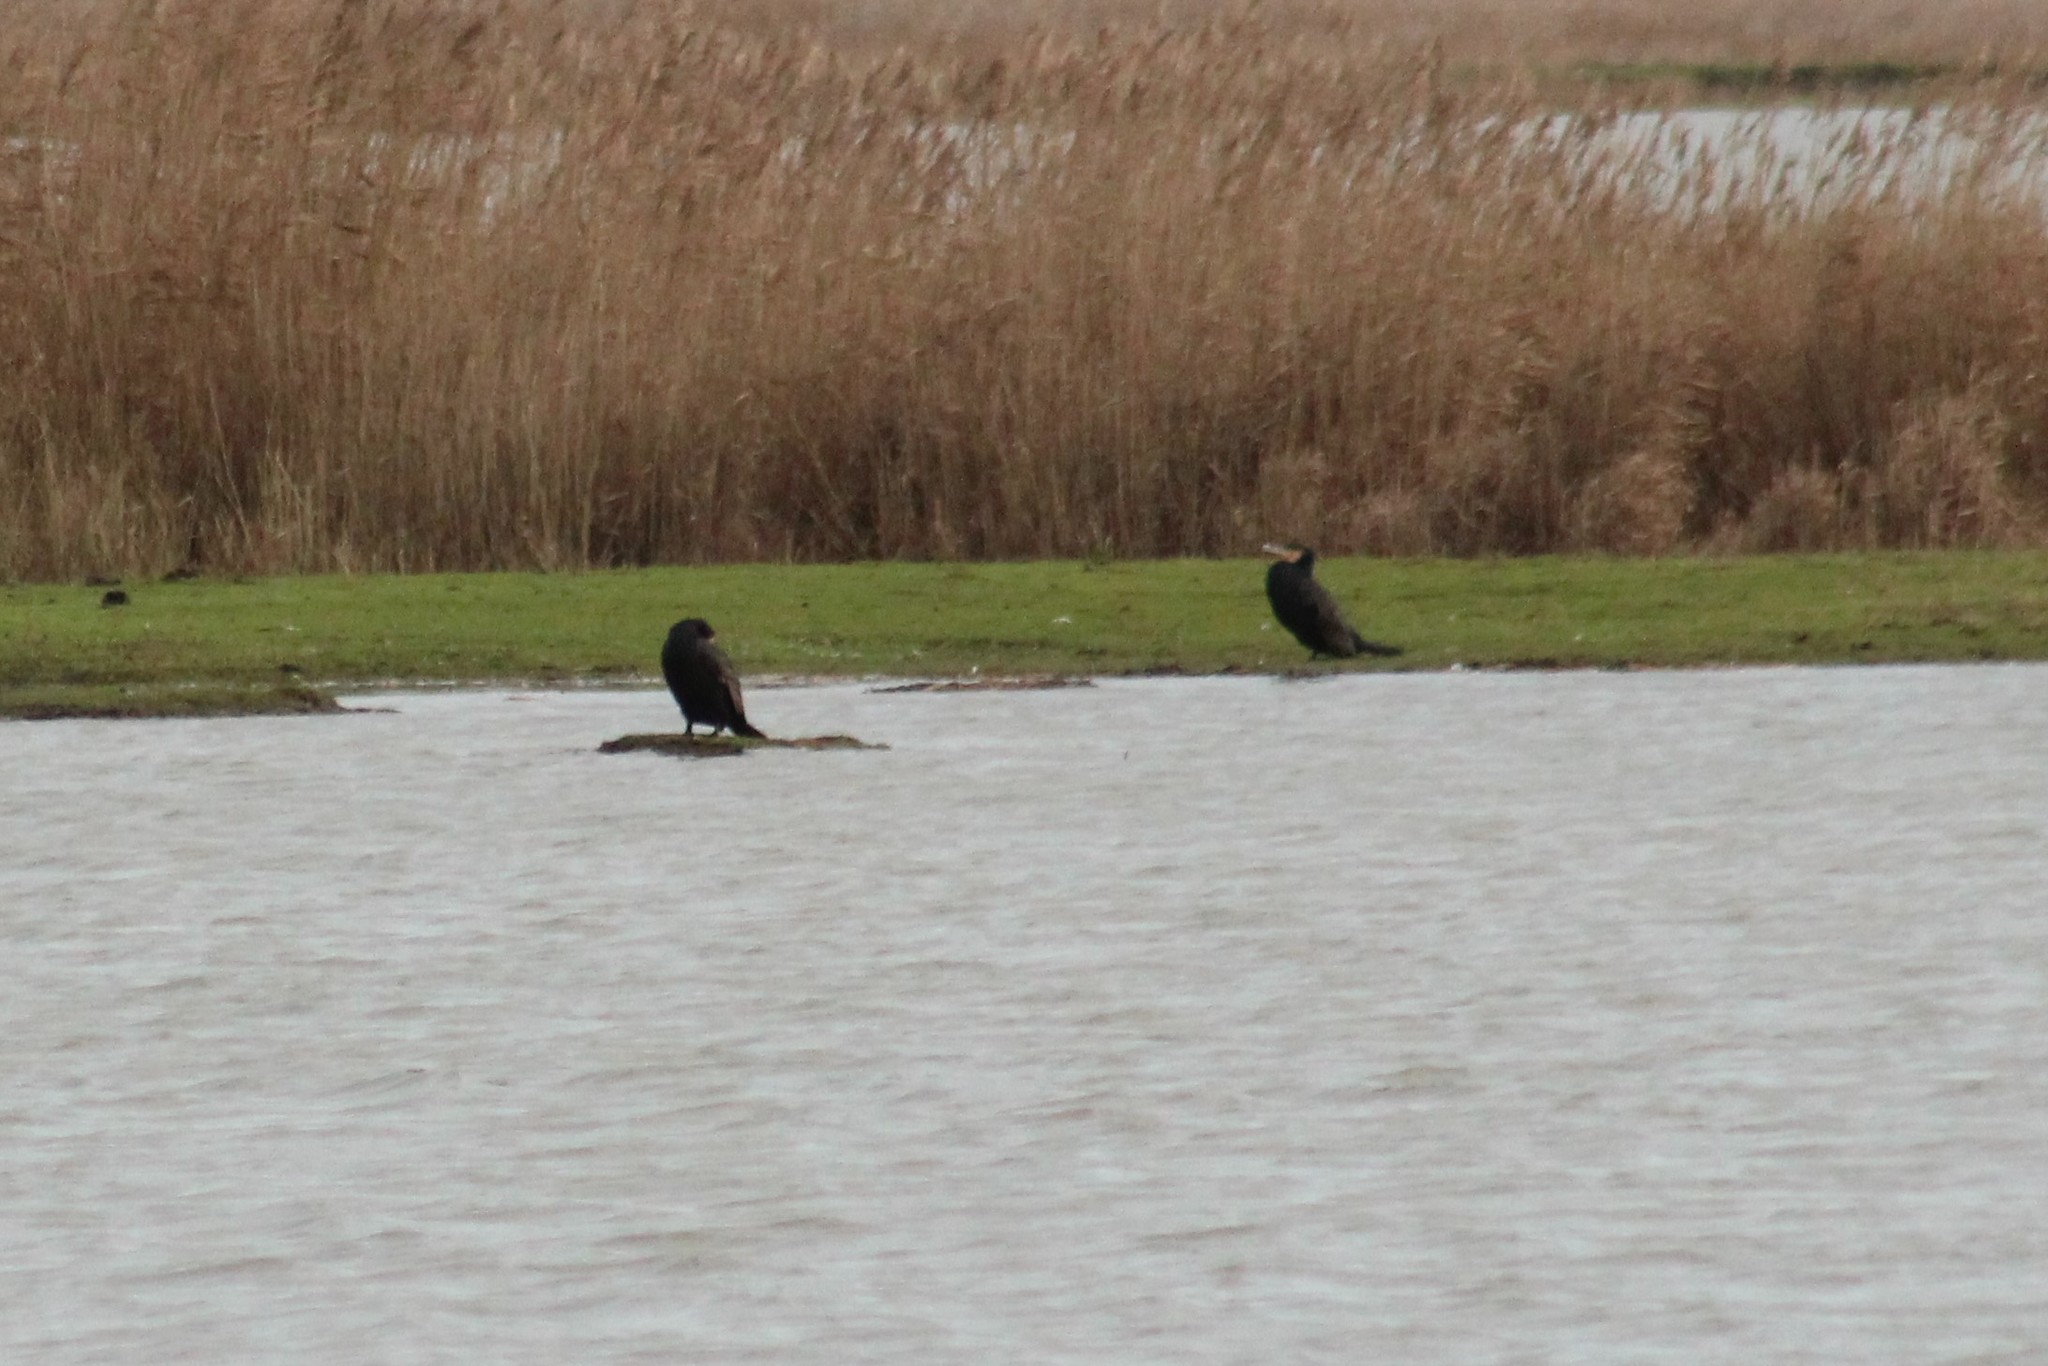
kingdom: Animalia
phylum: Chordata
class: Aves
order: Suliformes
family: Phalacrocoracidae
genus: Phalacrocorax
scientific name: Phalacrocorax carbo
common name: Great cormorant
